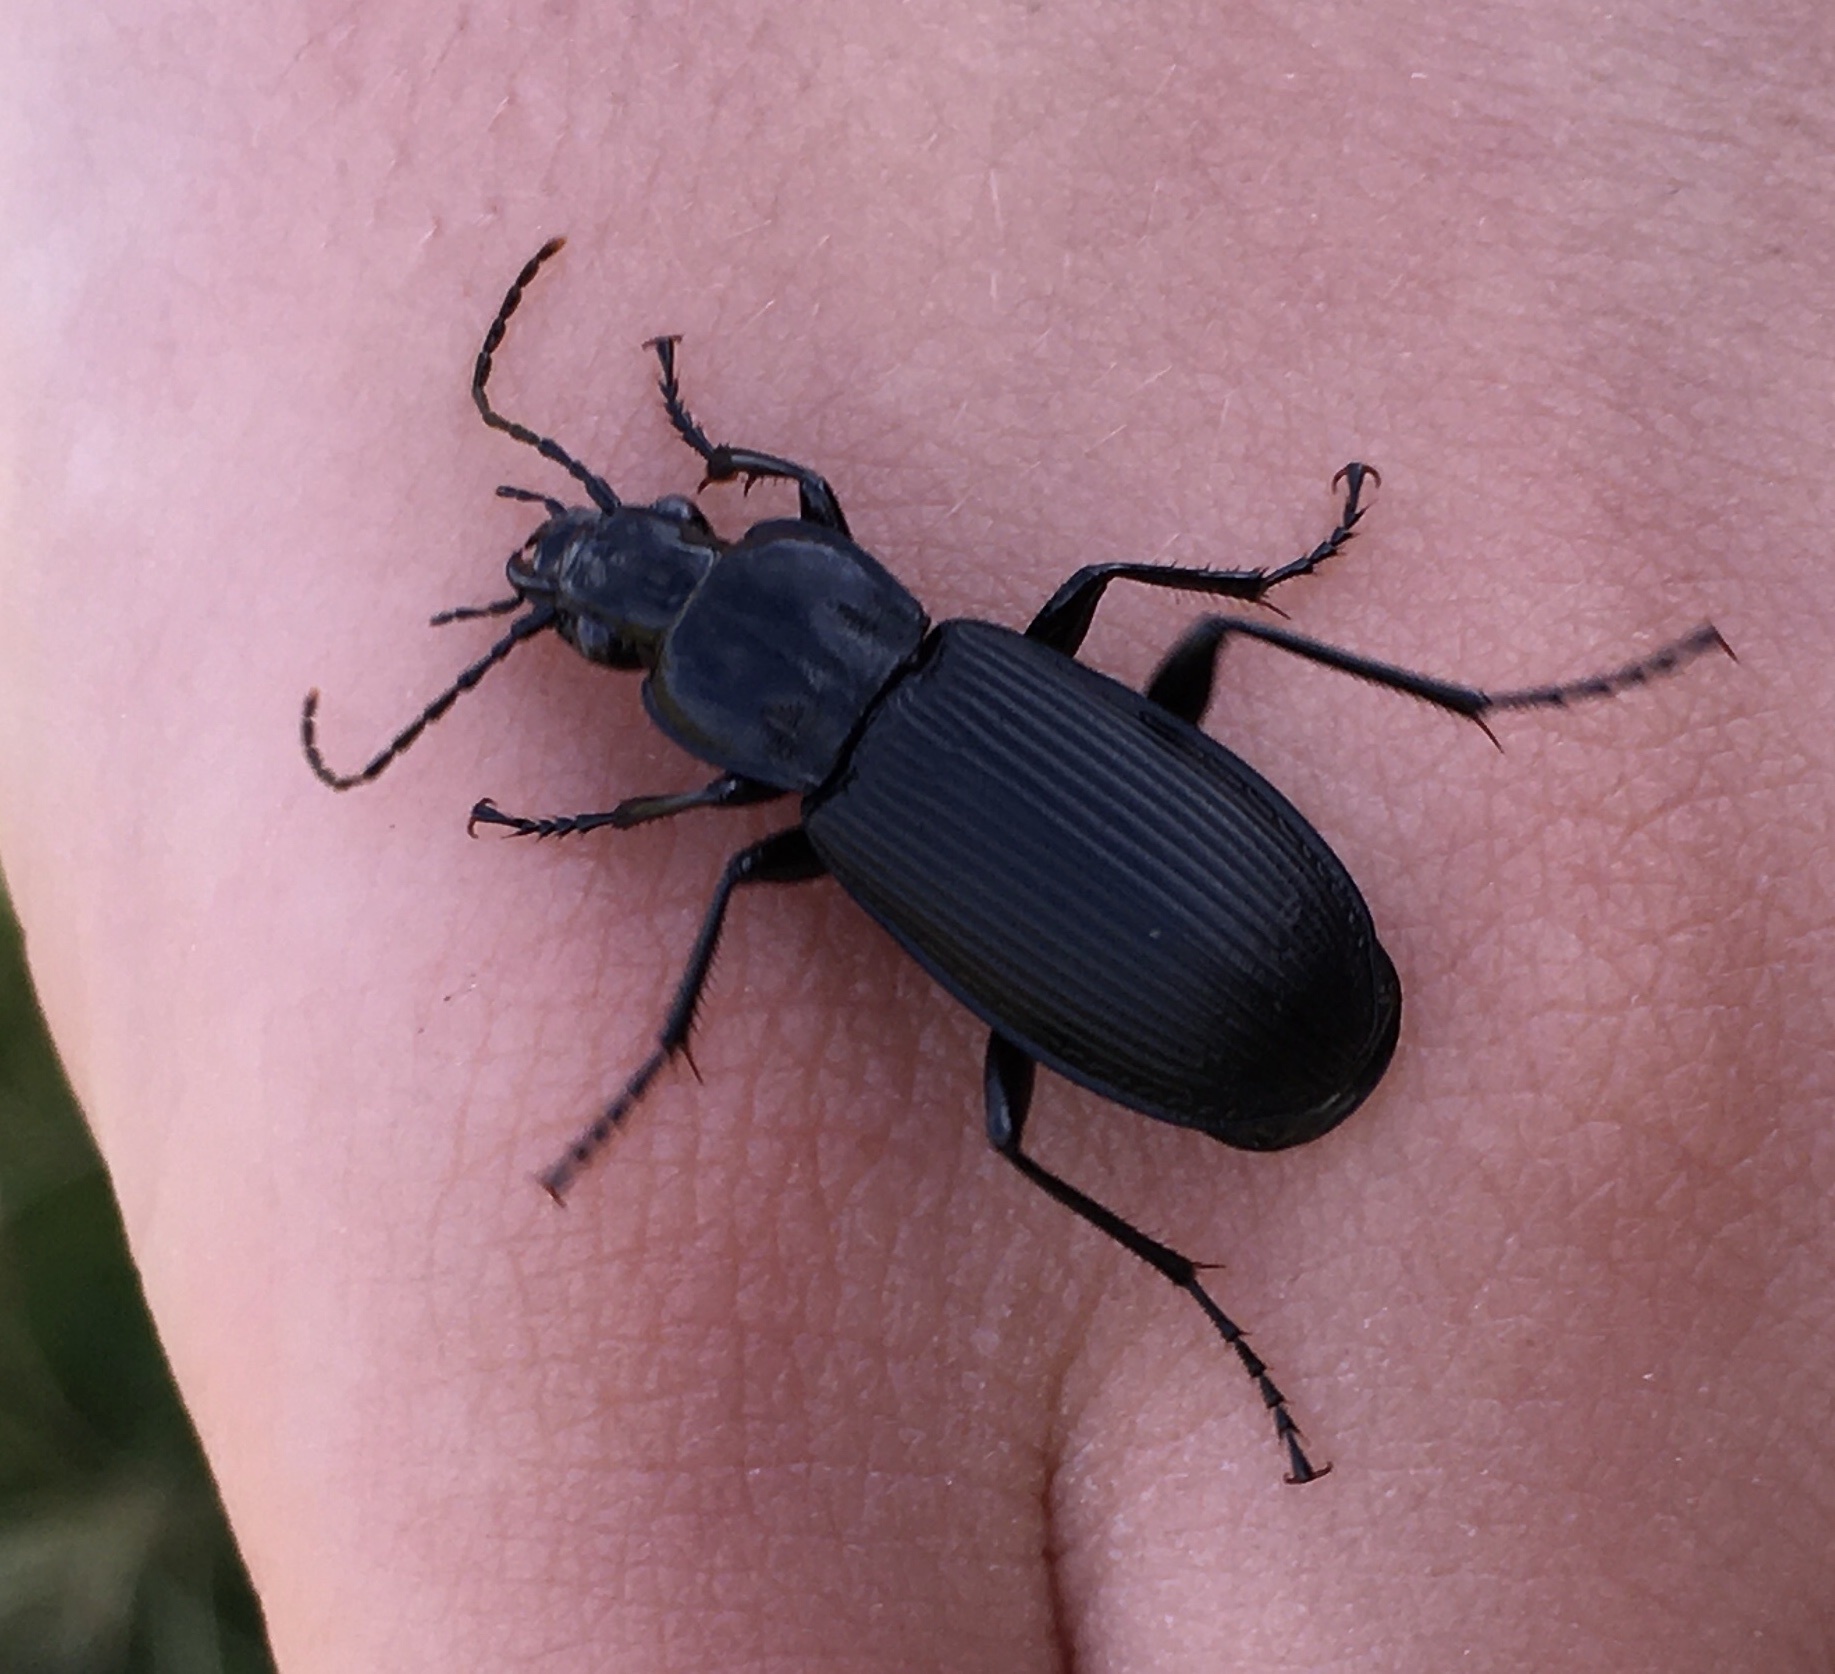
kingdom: Animalia
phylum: Arthropoda
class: Insecta
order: Coleoptera
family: Carabidae
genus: Pterostichus
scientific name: Pterostichus niger
